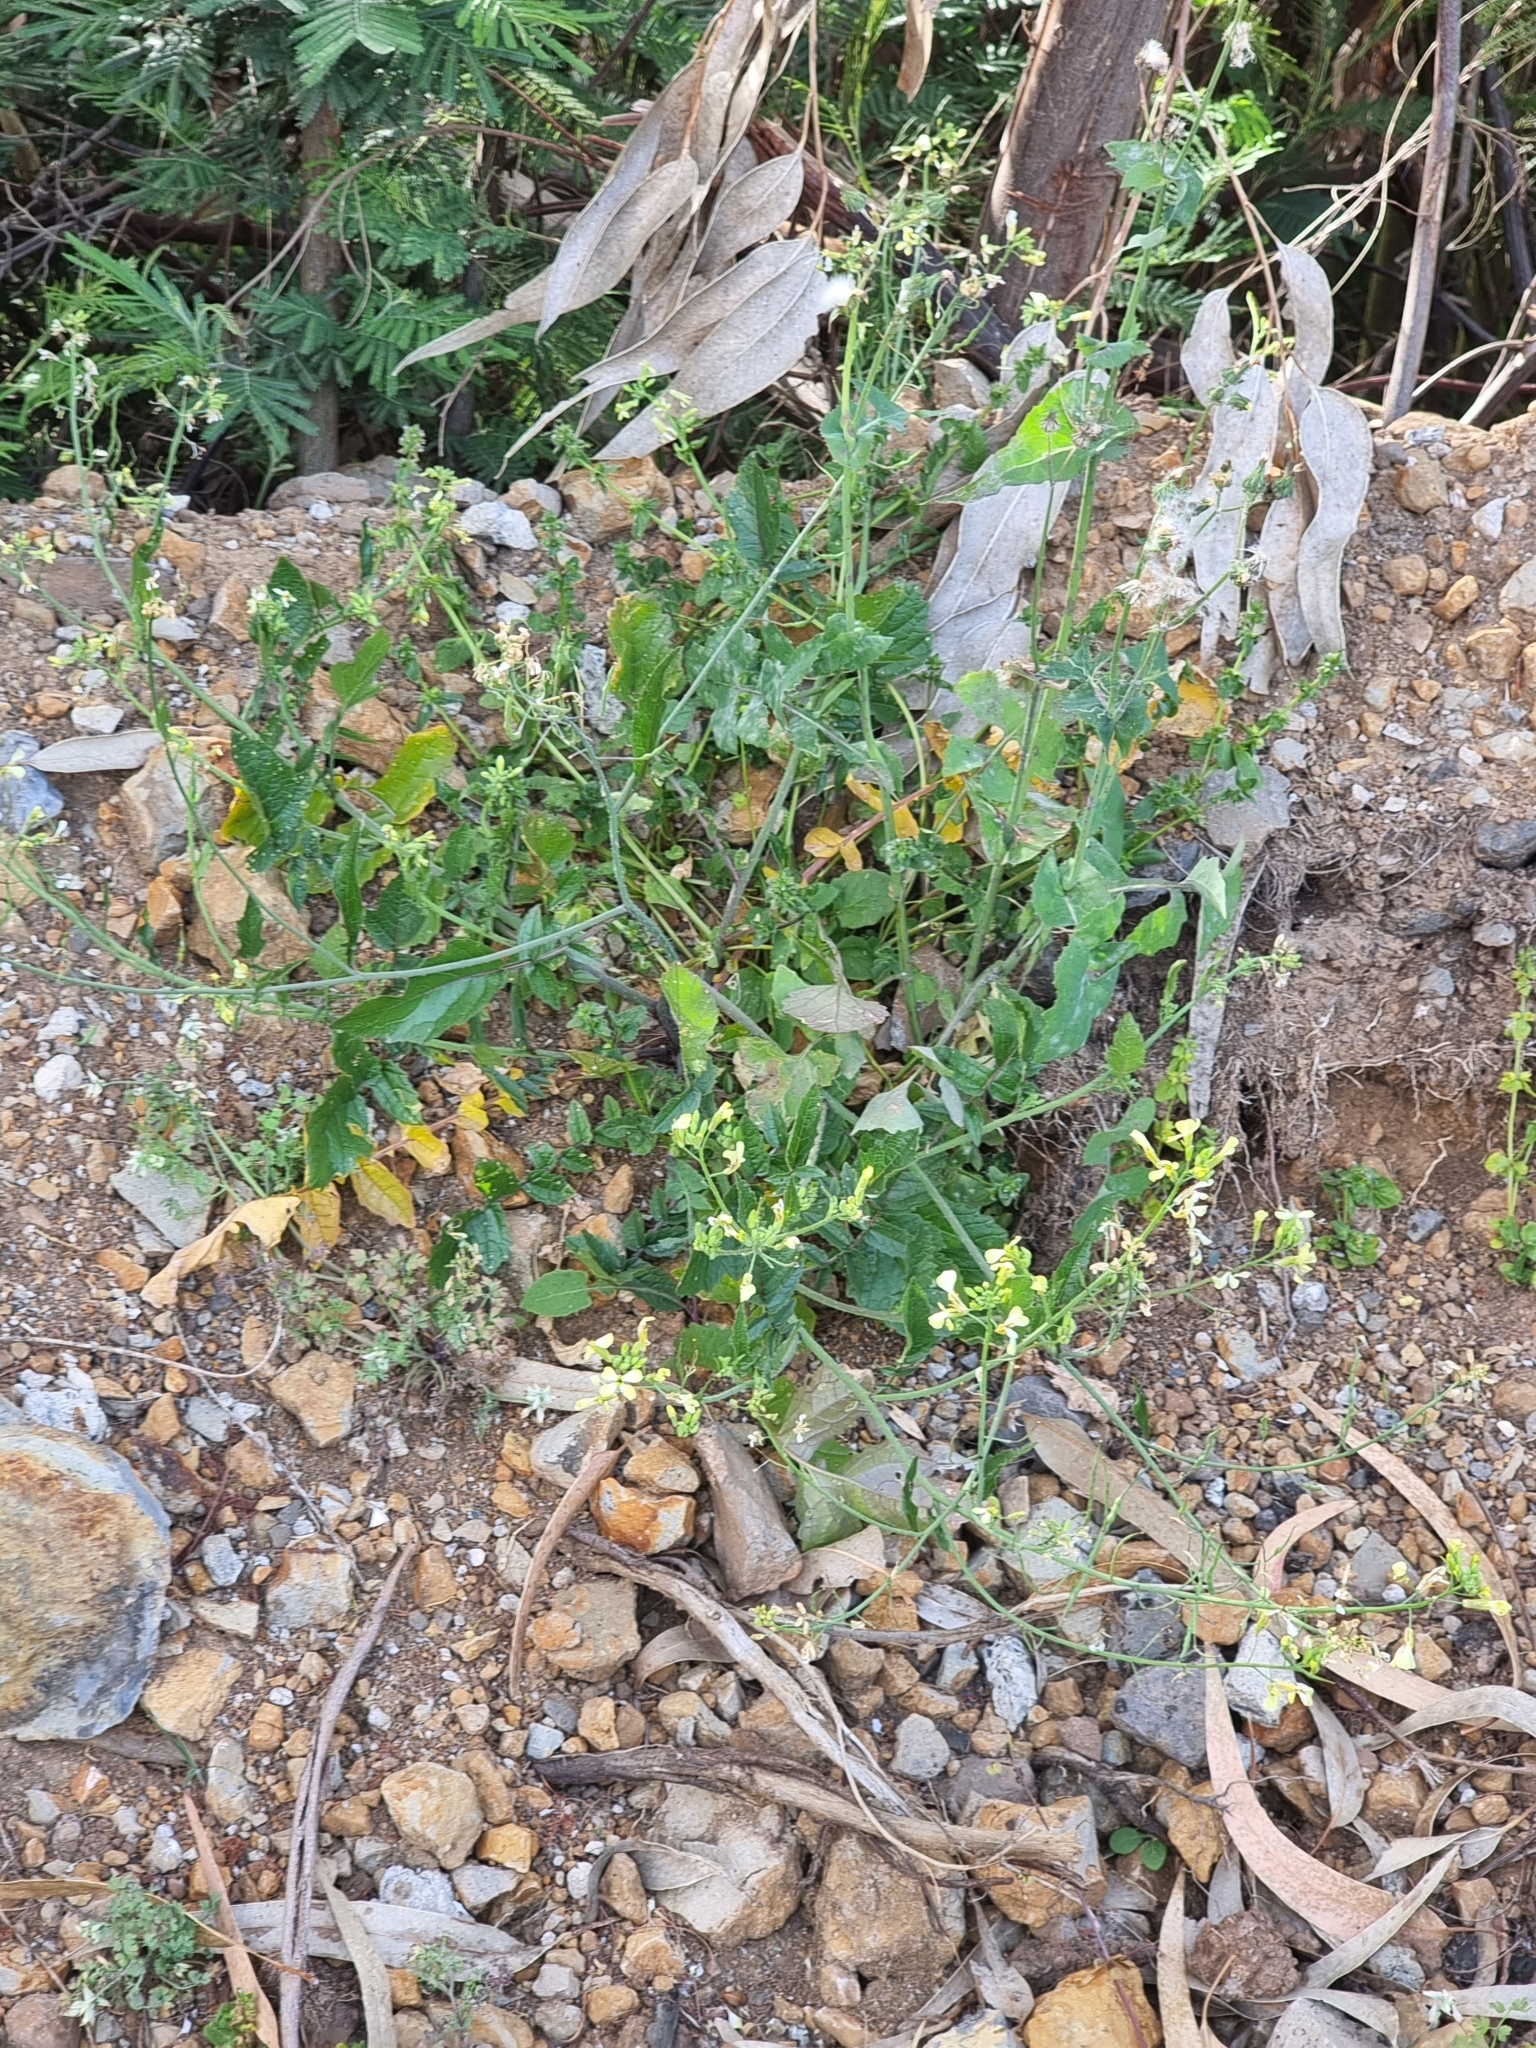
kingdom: Plantae
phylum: Tracheophyta
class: Magnoliopsida
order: Brassicales
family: Brassicaceae
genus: Raphanus
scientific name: Raphanus raphanistrum
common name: Wild radish
